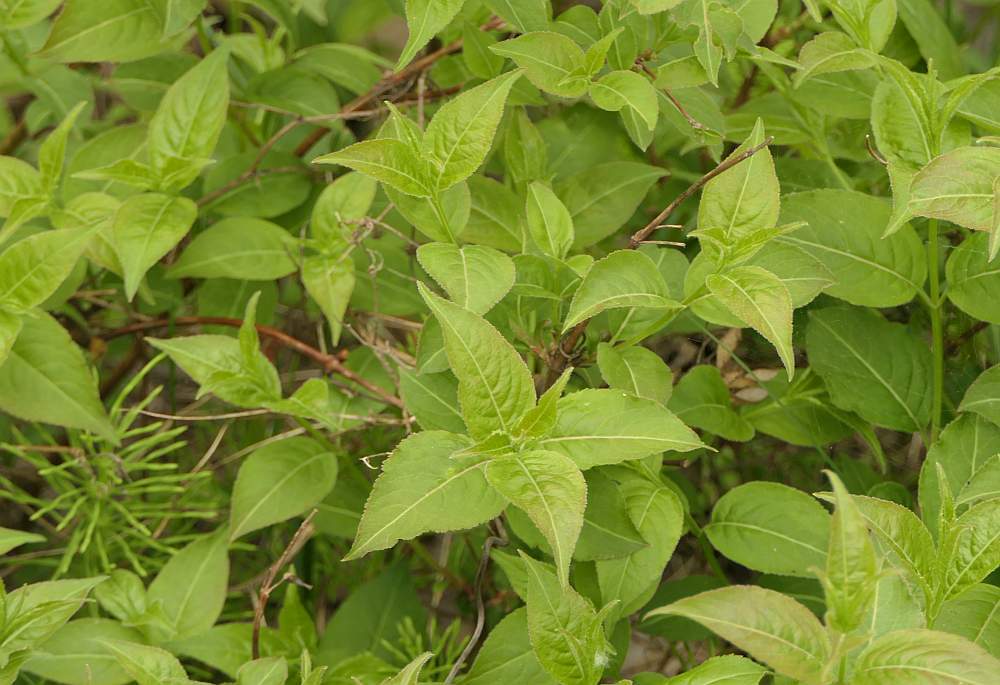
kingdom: Plantae
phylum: Tracheophyta
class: Magnoliopsida
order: Dipsacales
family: Caprifoliaceae
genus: Diervilla
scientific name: Diervilla lonicera
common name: Bush-honeysuckle
